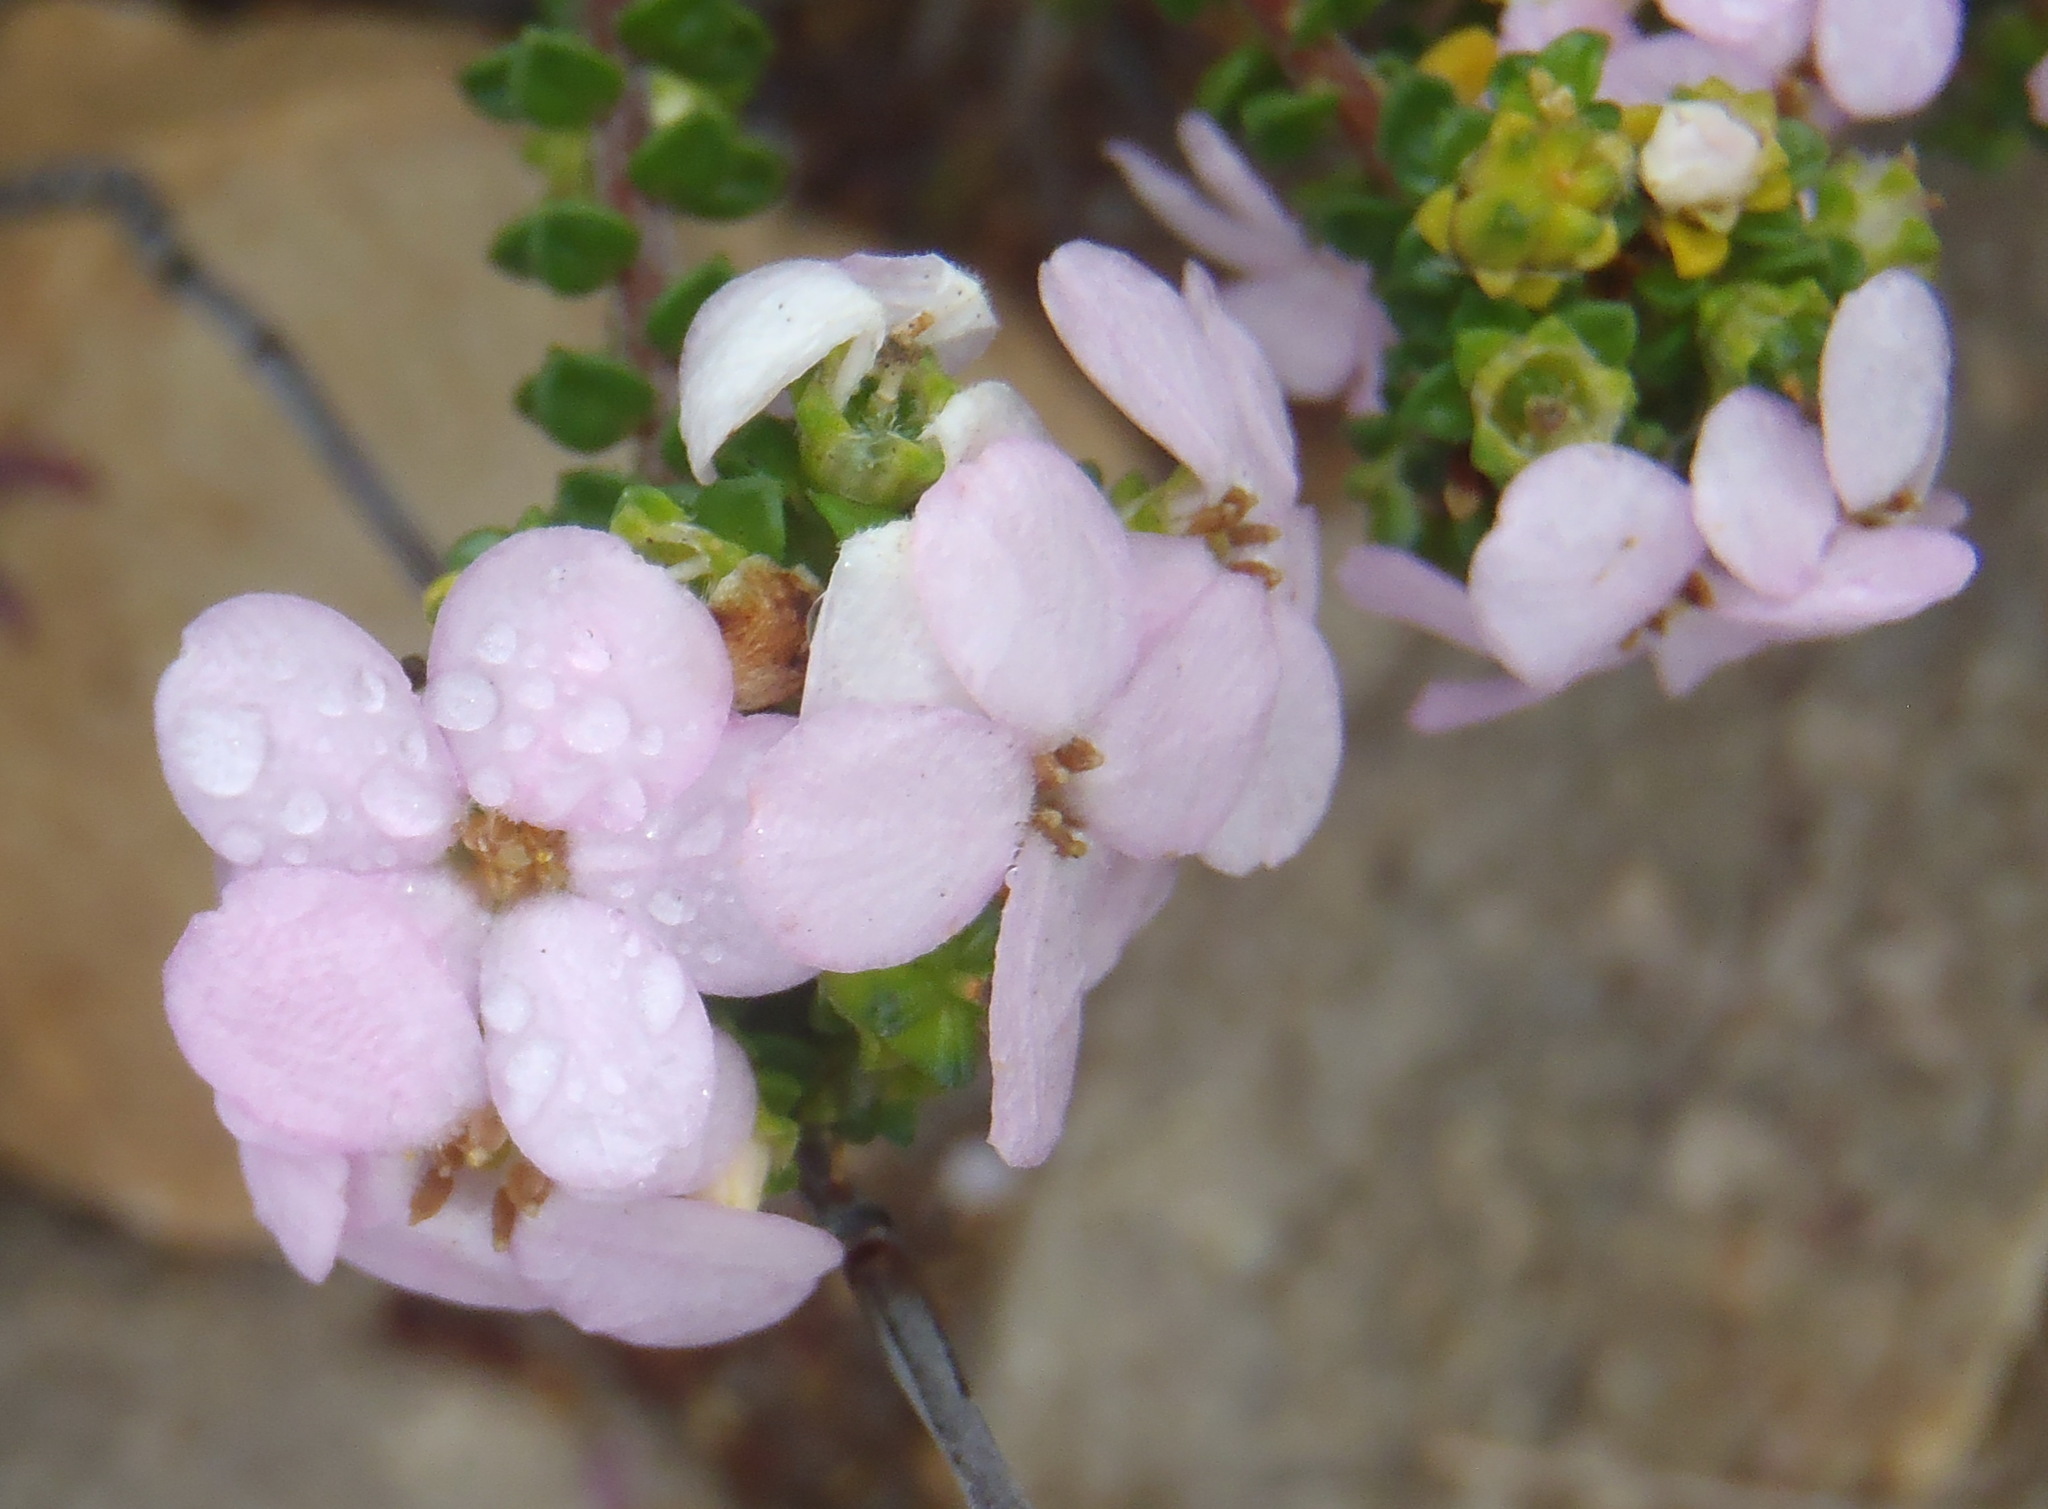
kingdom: Plantae
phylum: Tracheophyta
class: Magnoliopsida
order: Sapindales
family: Rutaceae
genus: Acmadenia
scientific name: Acmadenia heterophylla
